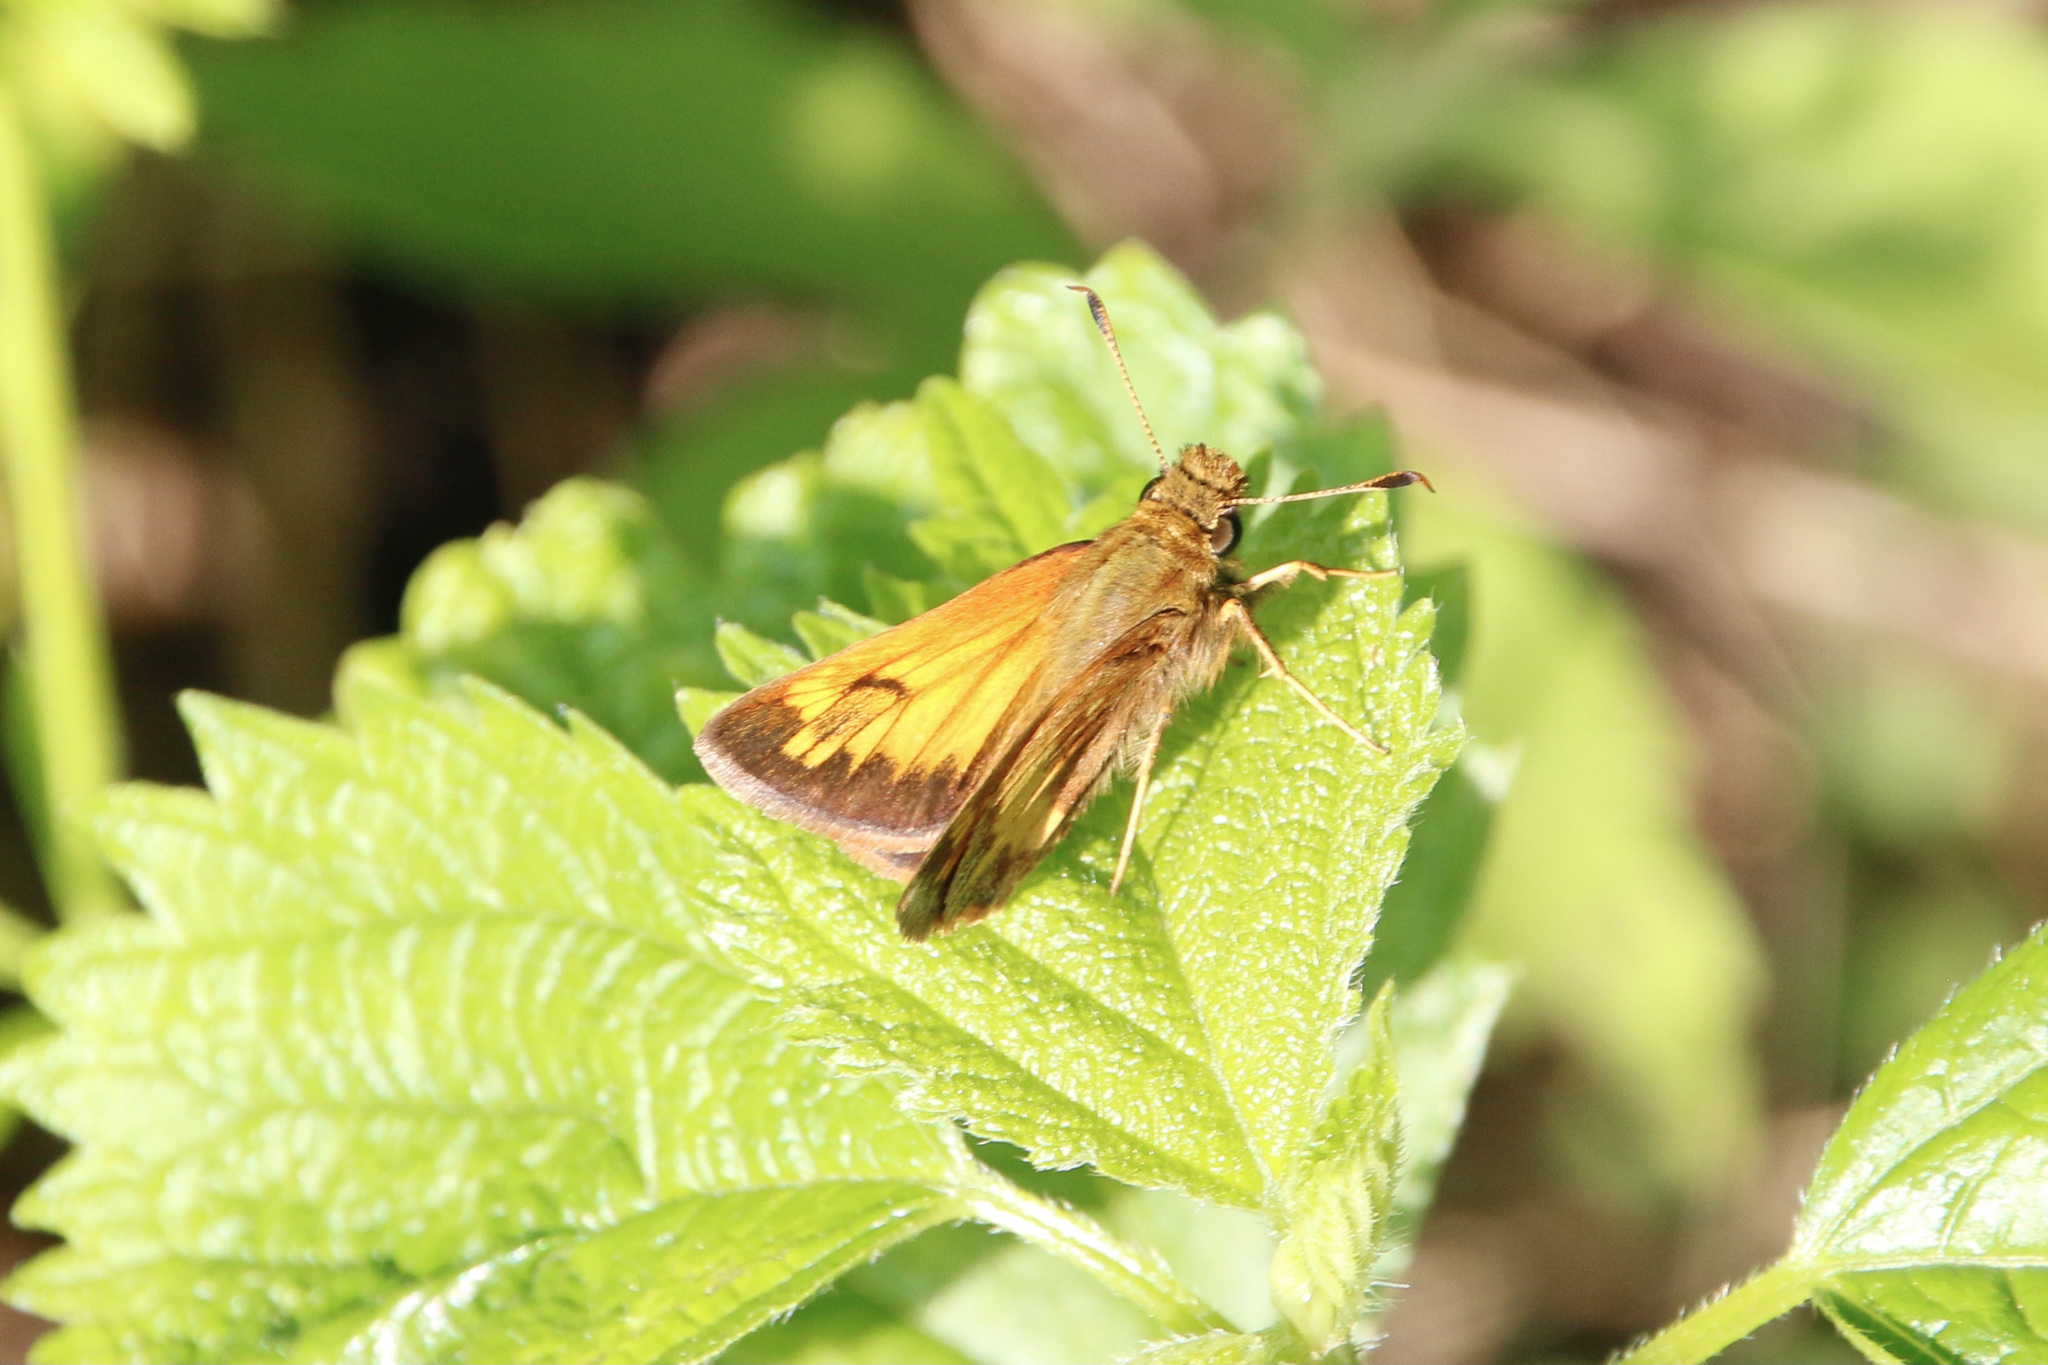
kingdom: Animalia
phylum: Arthropoda
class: Insecta
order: Lepidoptera
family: Hesperiidae
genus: Lon
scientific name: Lon hobomok
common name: Hobomok skipper
